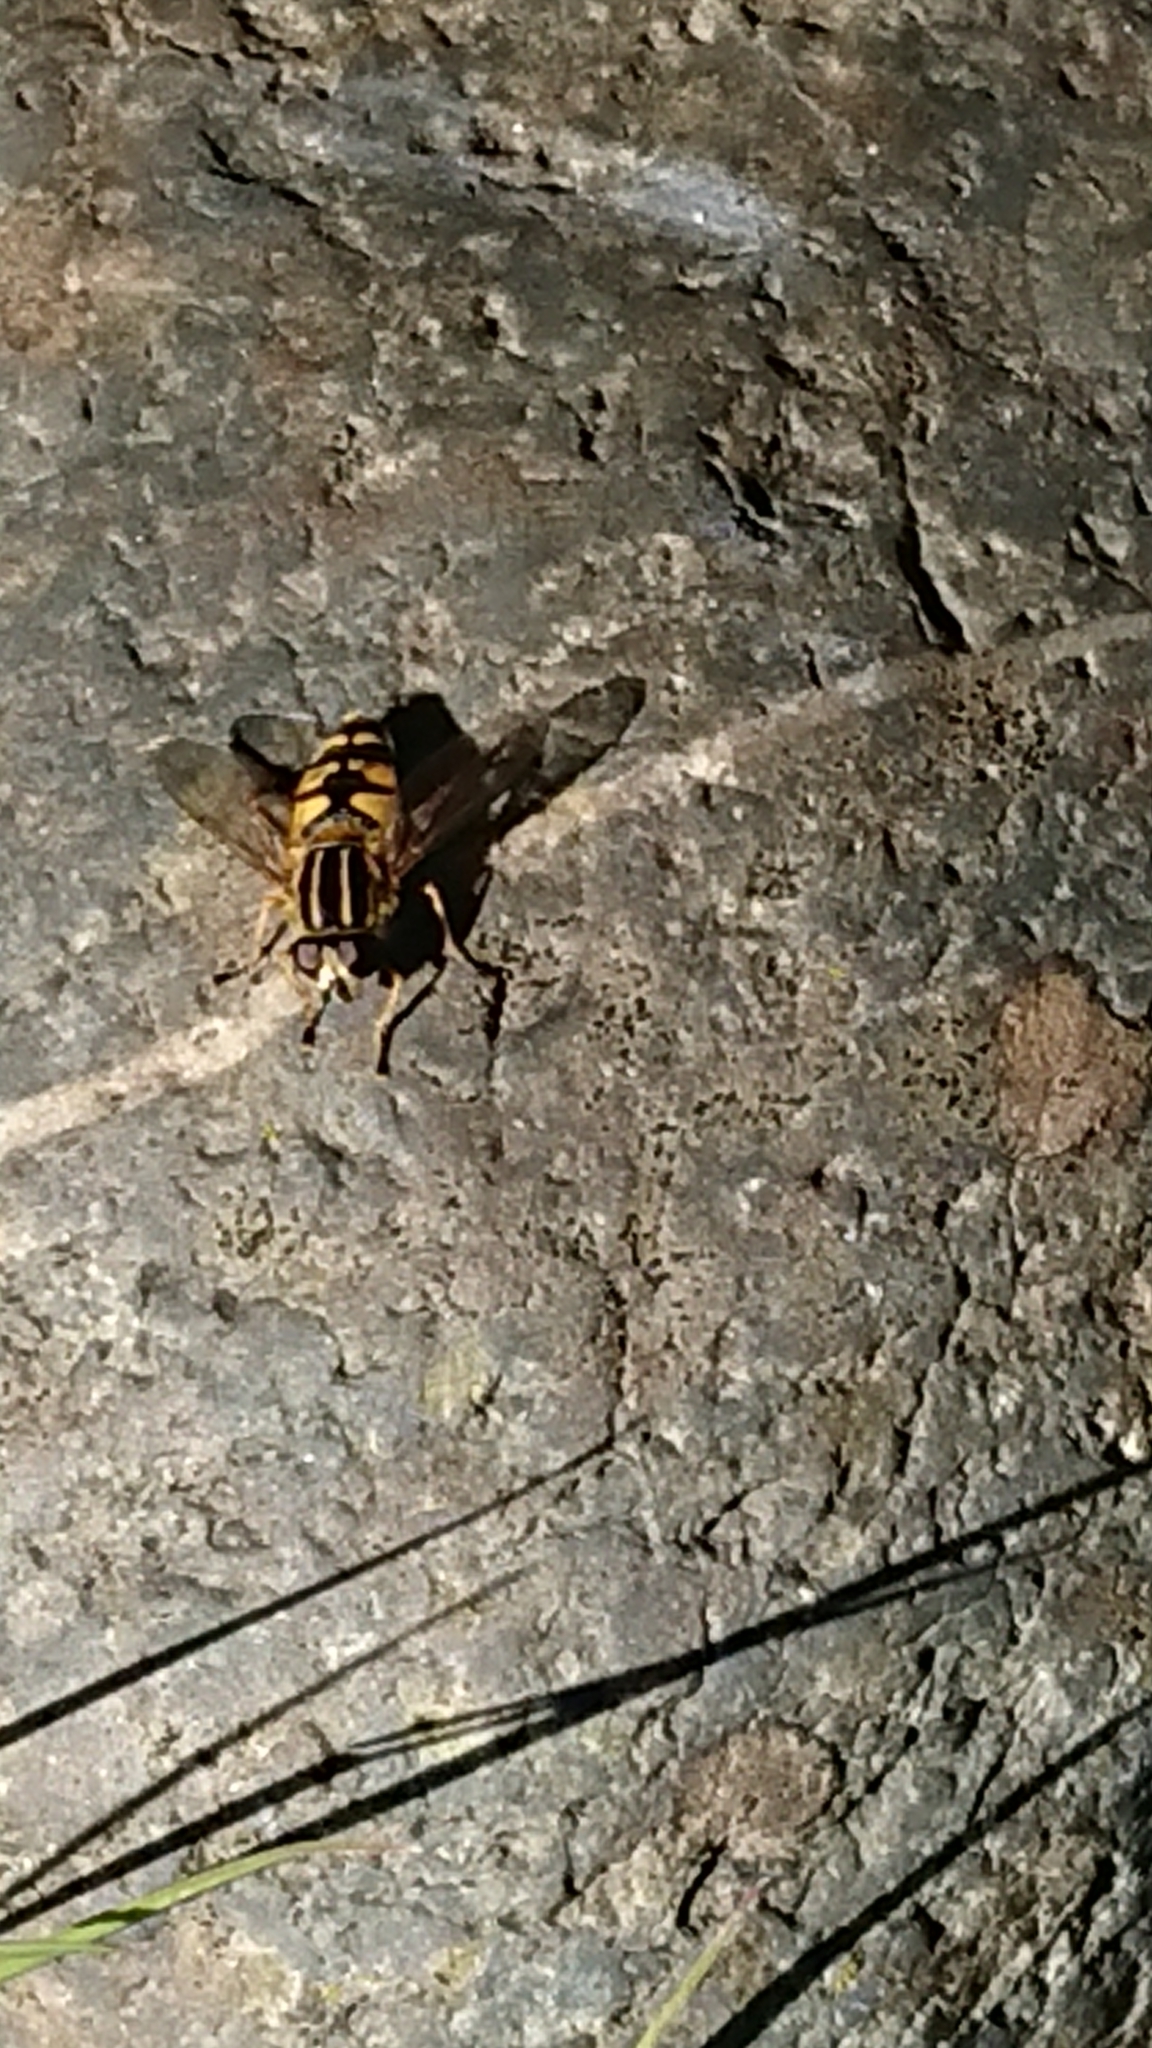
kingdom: Animalia
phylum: Arthropoda
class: Insecta
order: Diptera
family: Syrphidae
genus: Helophilus
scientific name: Helophilus pendulus
